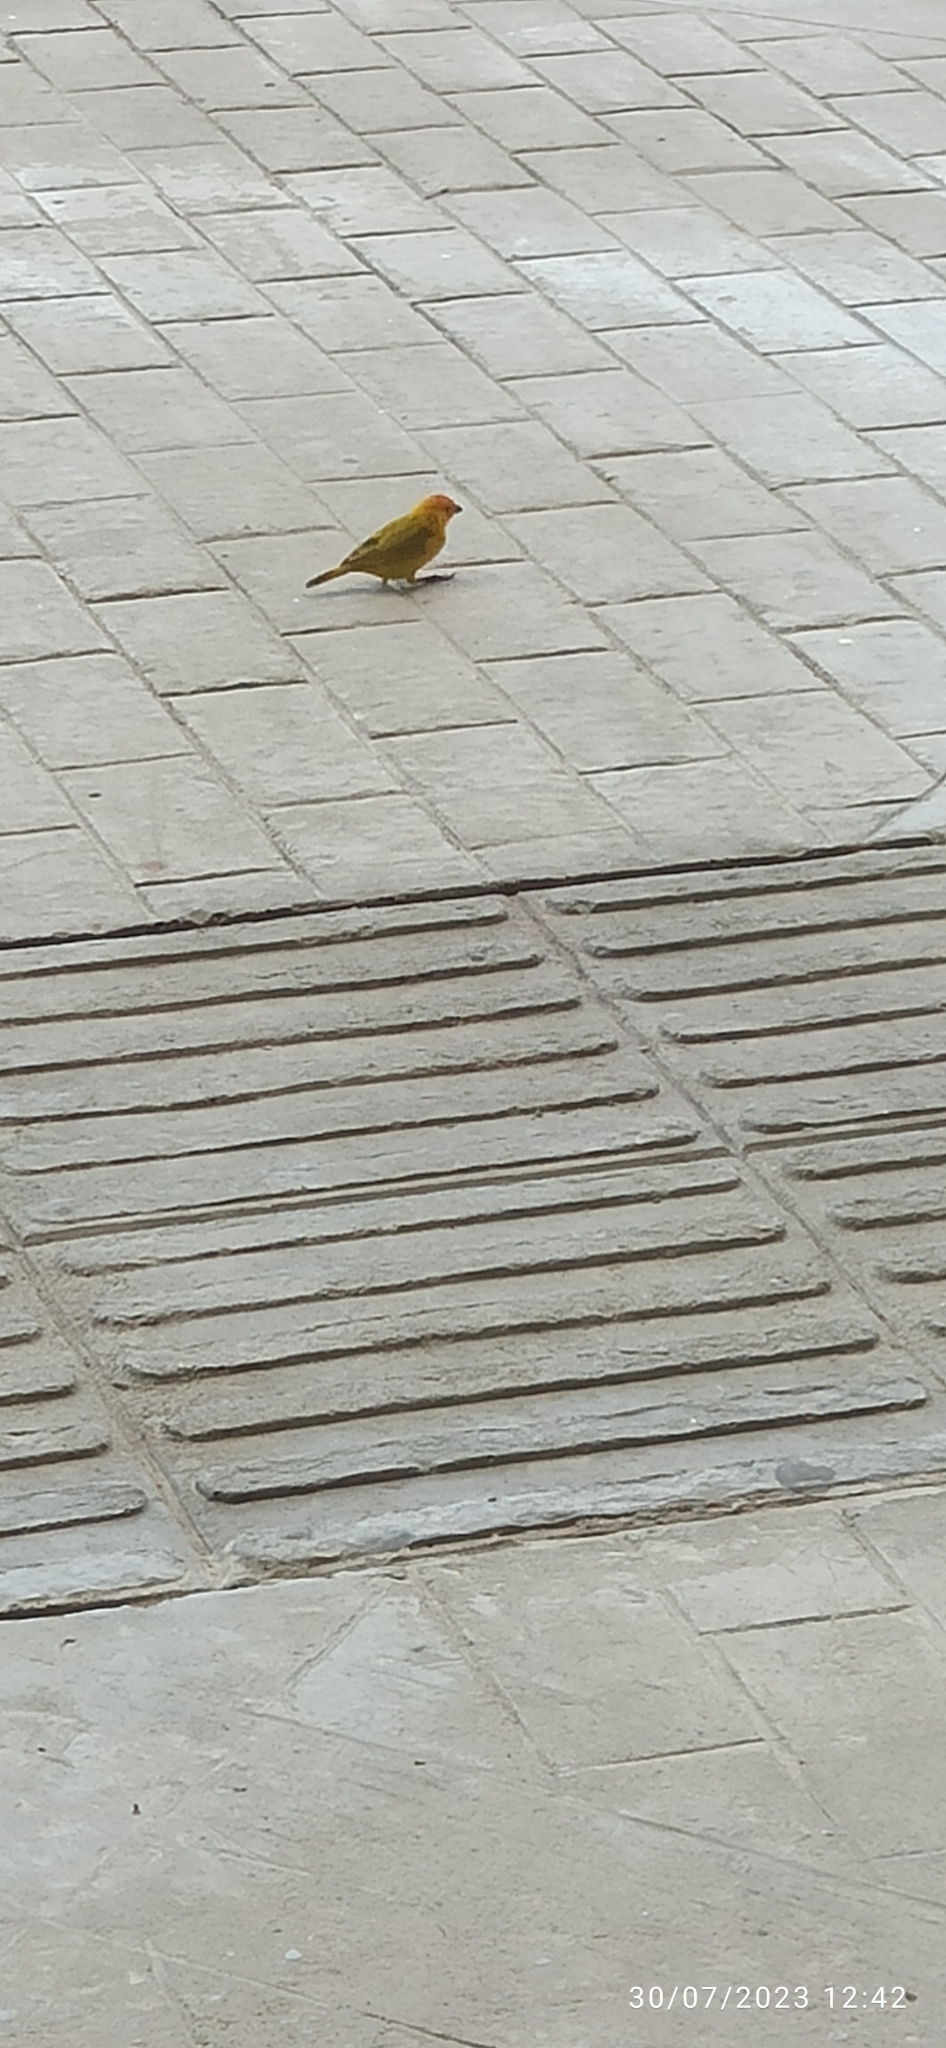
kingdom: Animalia
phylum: Chordata
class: Aves
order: Passeriformes
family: Thraupidae
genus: Sicalis
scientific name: Sicalis flaveola
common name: Saffron finch
